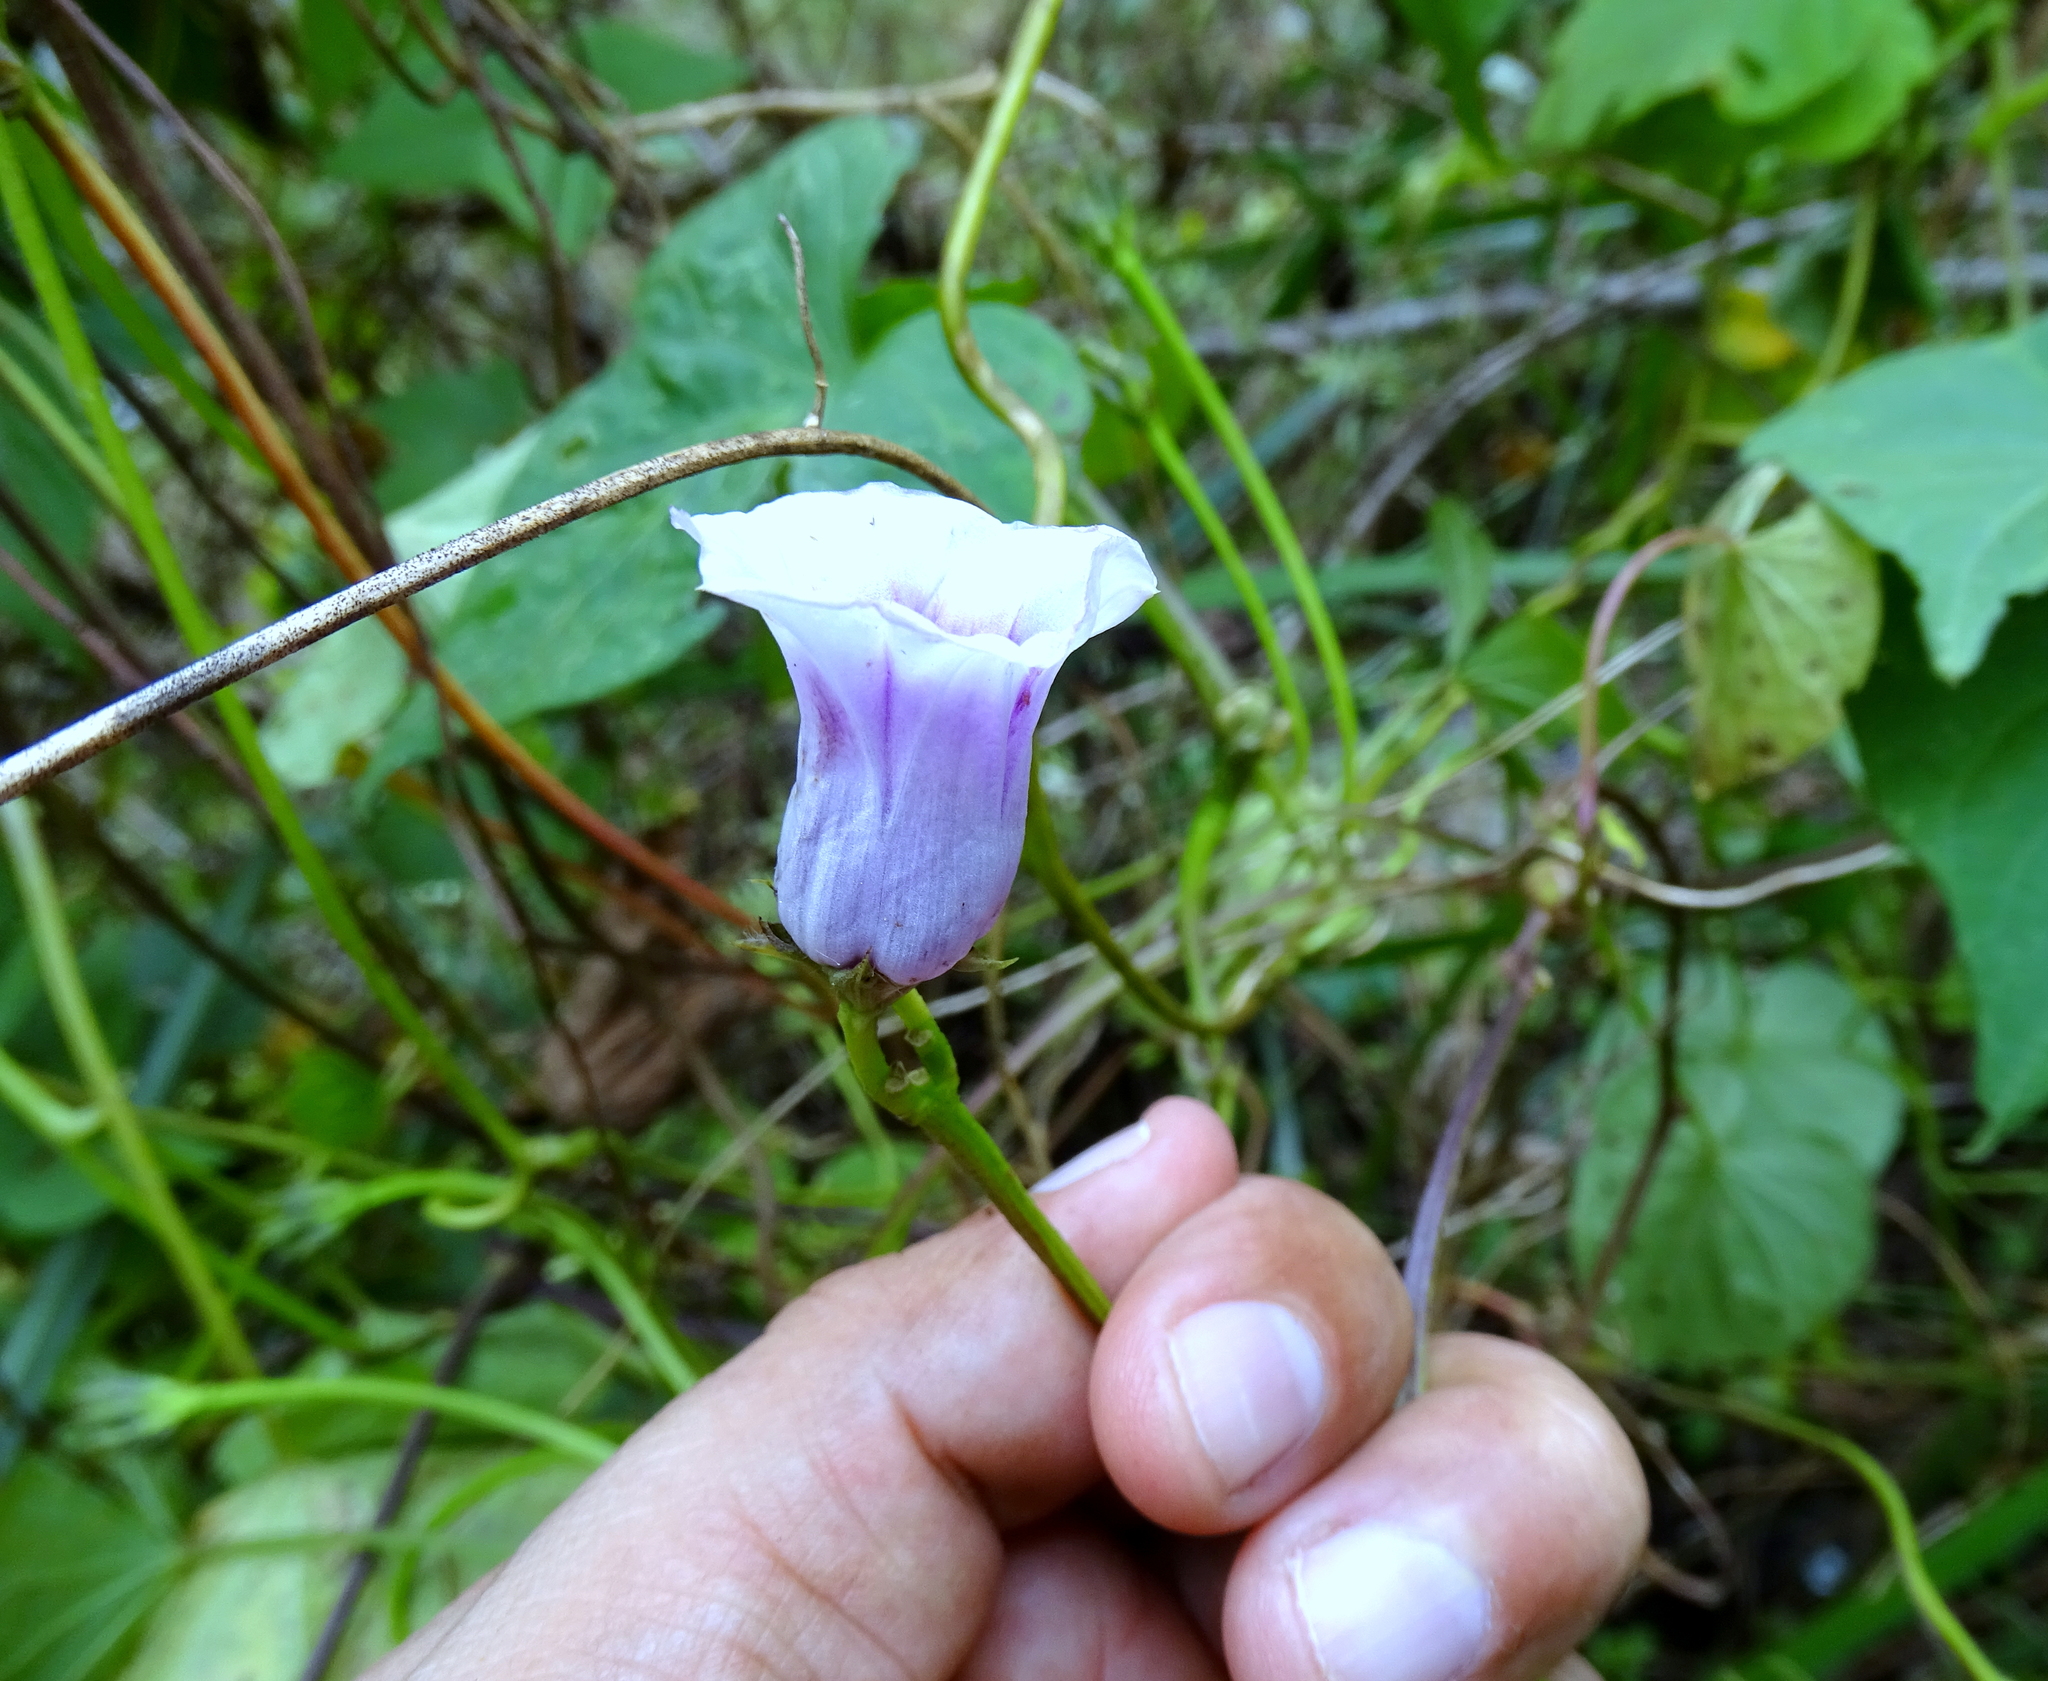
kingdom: Plantae
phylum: Tracheophyta
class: Magnoliopsida
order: Solanales
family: Convolvulaceae
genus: Ipomoea
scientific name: Ipomoea batatas
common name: Sweet-potato
